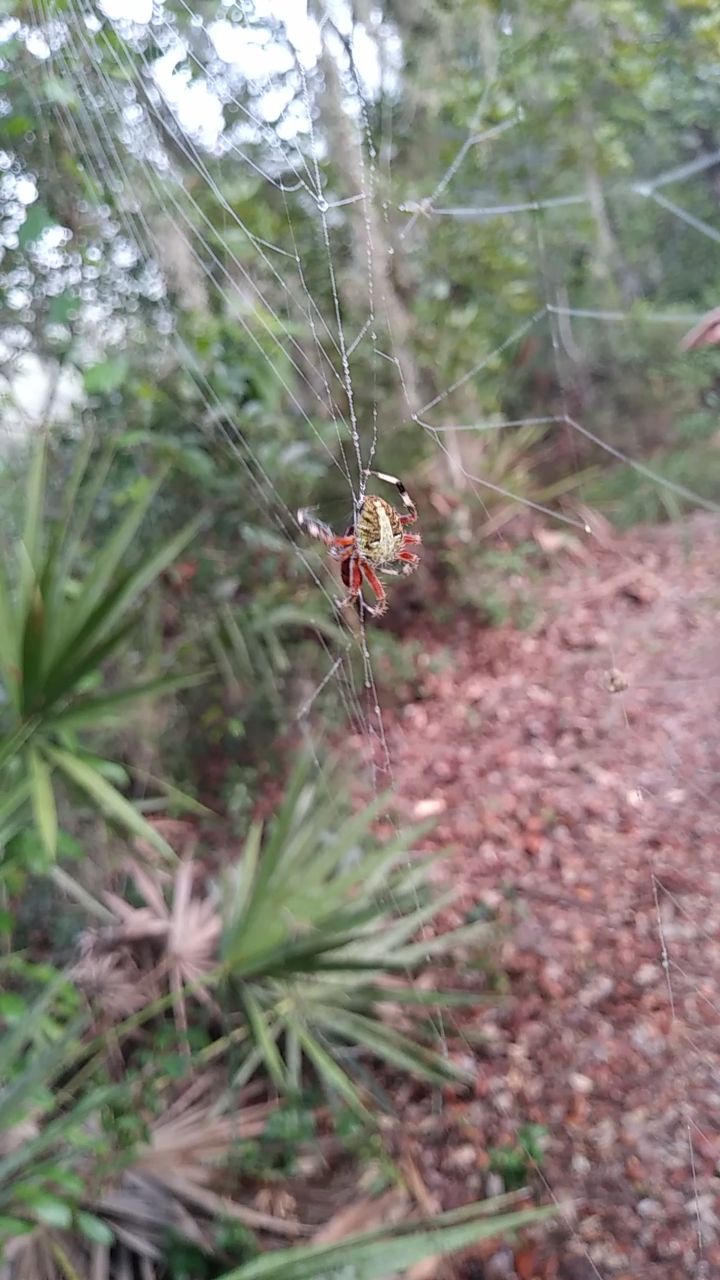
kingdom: Animalia
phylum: Arthropoda
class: Arachnida
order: Araneae
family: Araneidae
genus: Neoscona
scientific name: Neoscona domiciliorum
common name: Red-femured spotted orbweaver
